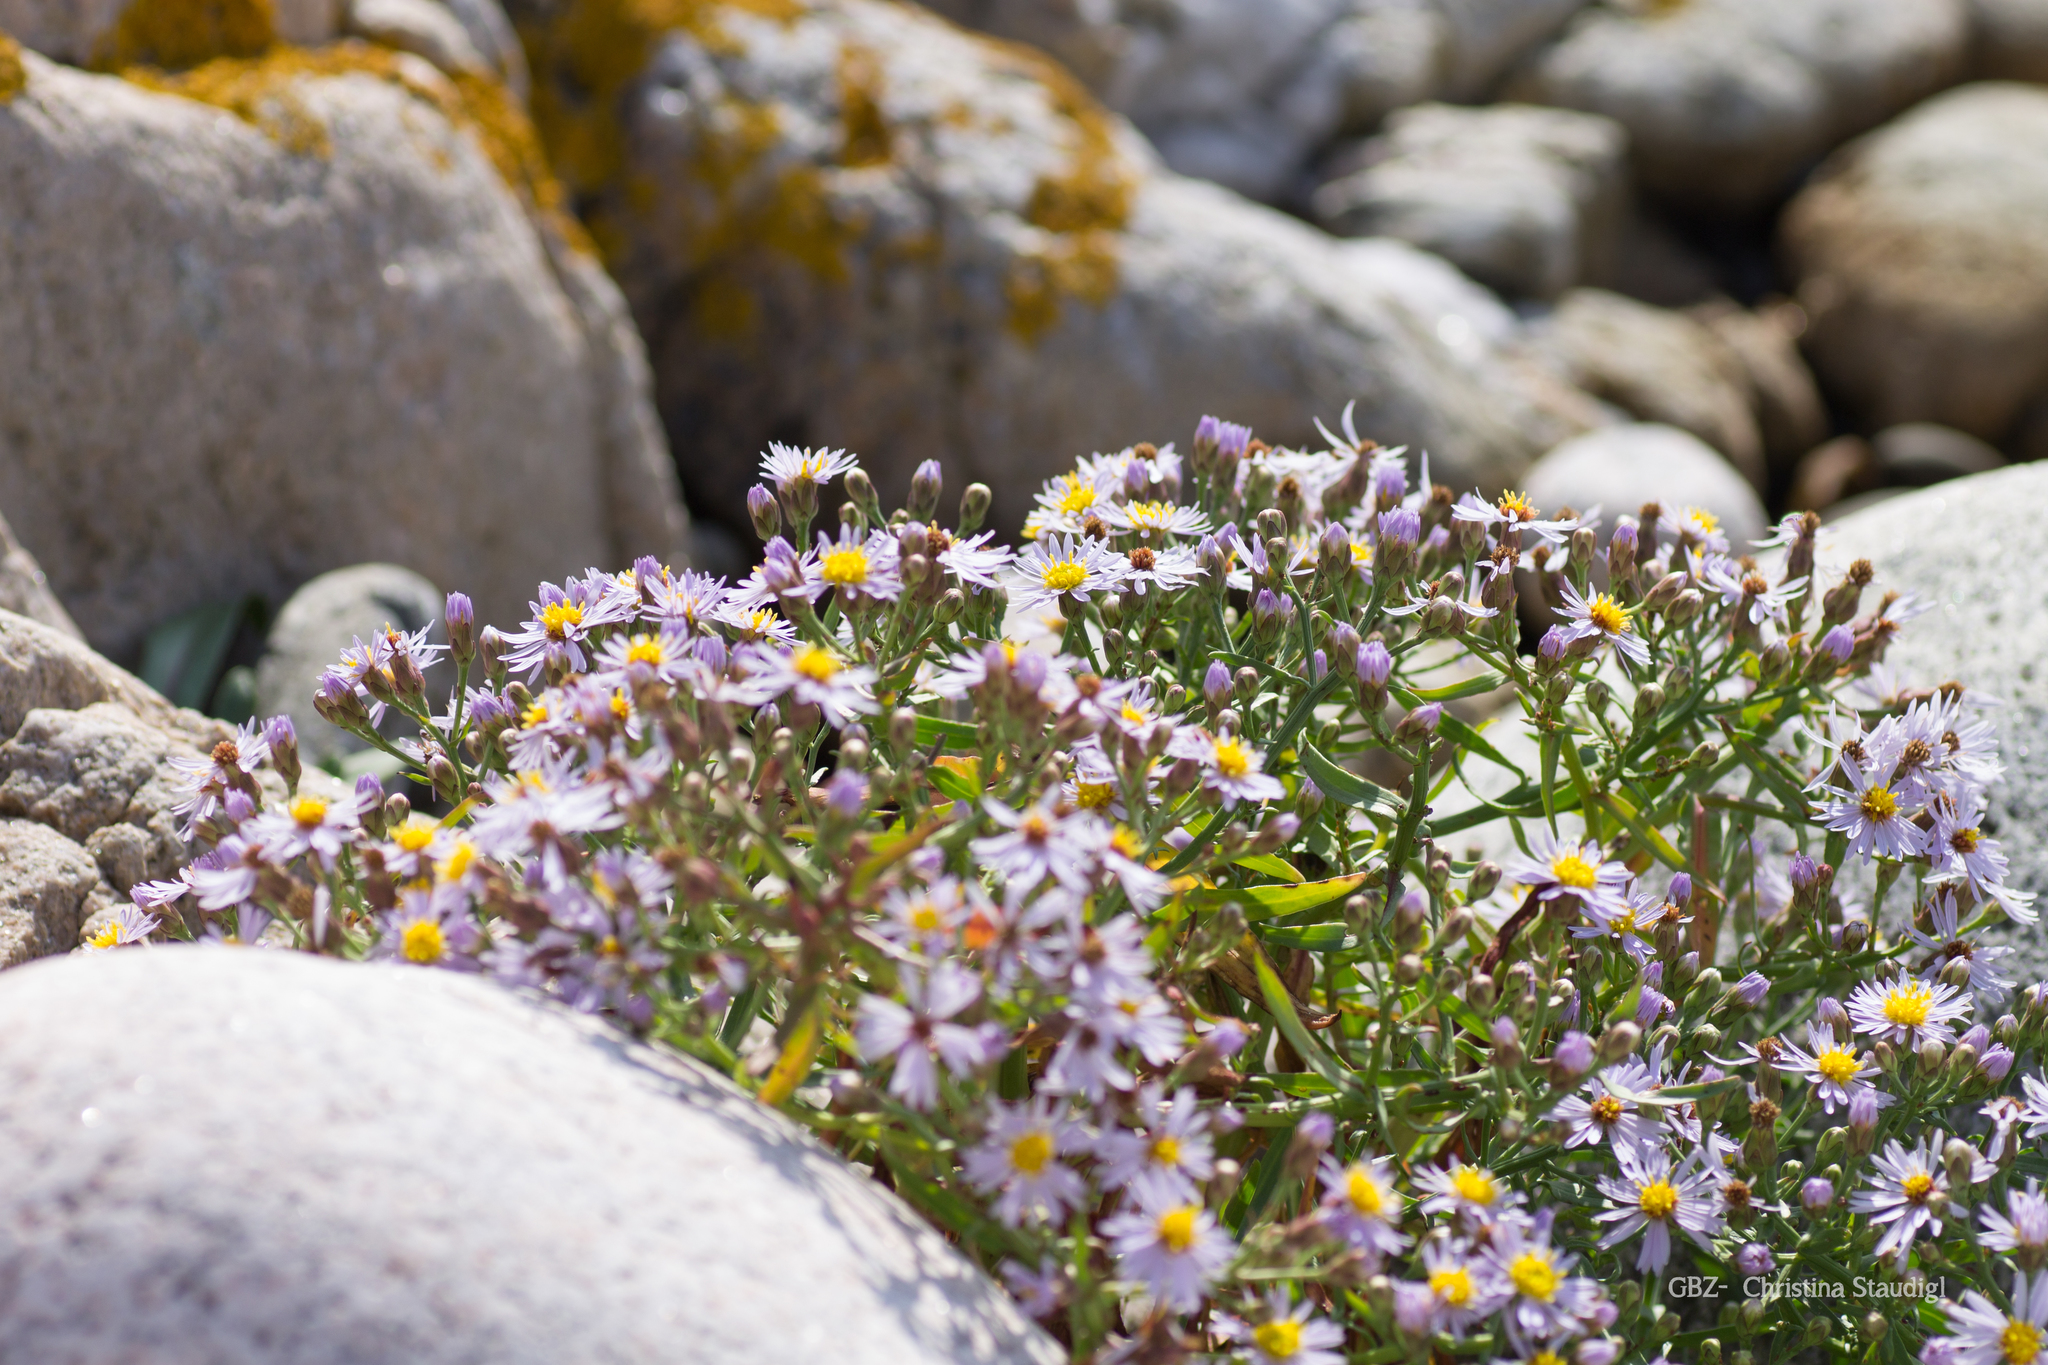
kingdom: Plantae
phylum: Tracheophyta
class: Magnoliopsida
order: Asterales
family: Asteraceae
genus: Tripolium
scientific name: Tripolium pannonicum
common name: Sea aster
